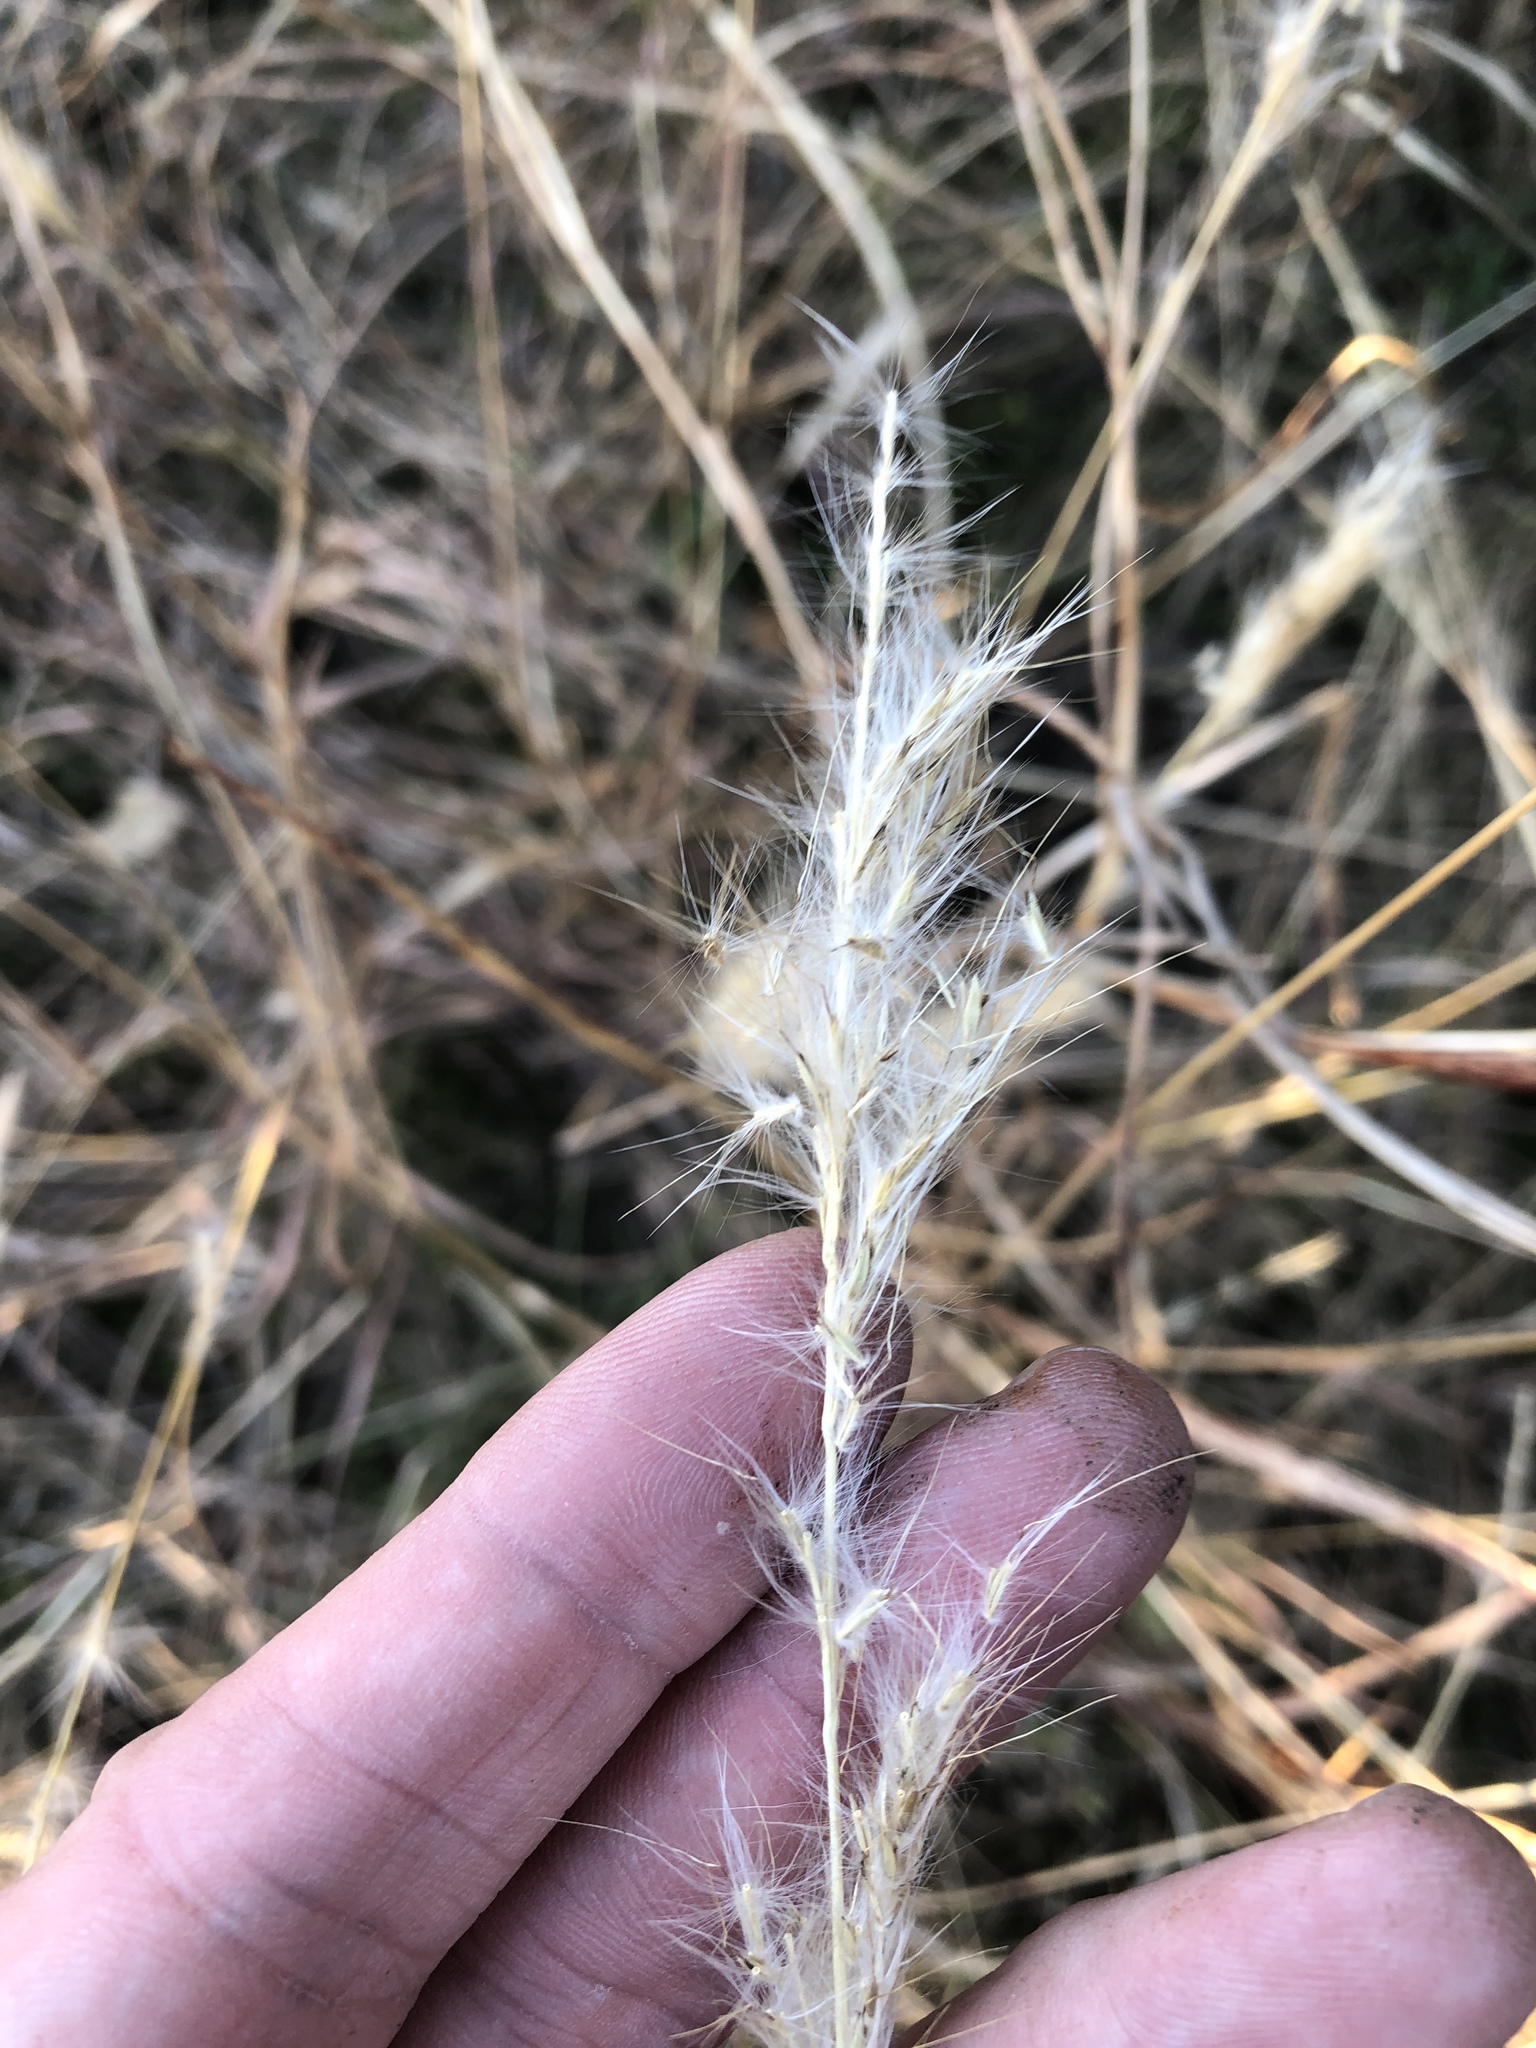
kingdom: Plantae
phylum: Tracheophyta
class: Liliopsida
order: Poales
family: Poaceae
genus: Bothriochloa
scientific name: Bothriochloa torreyana
